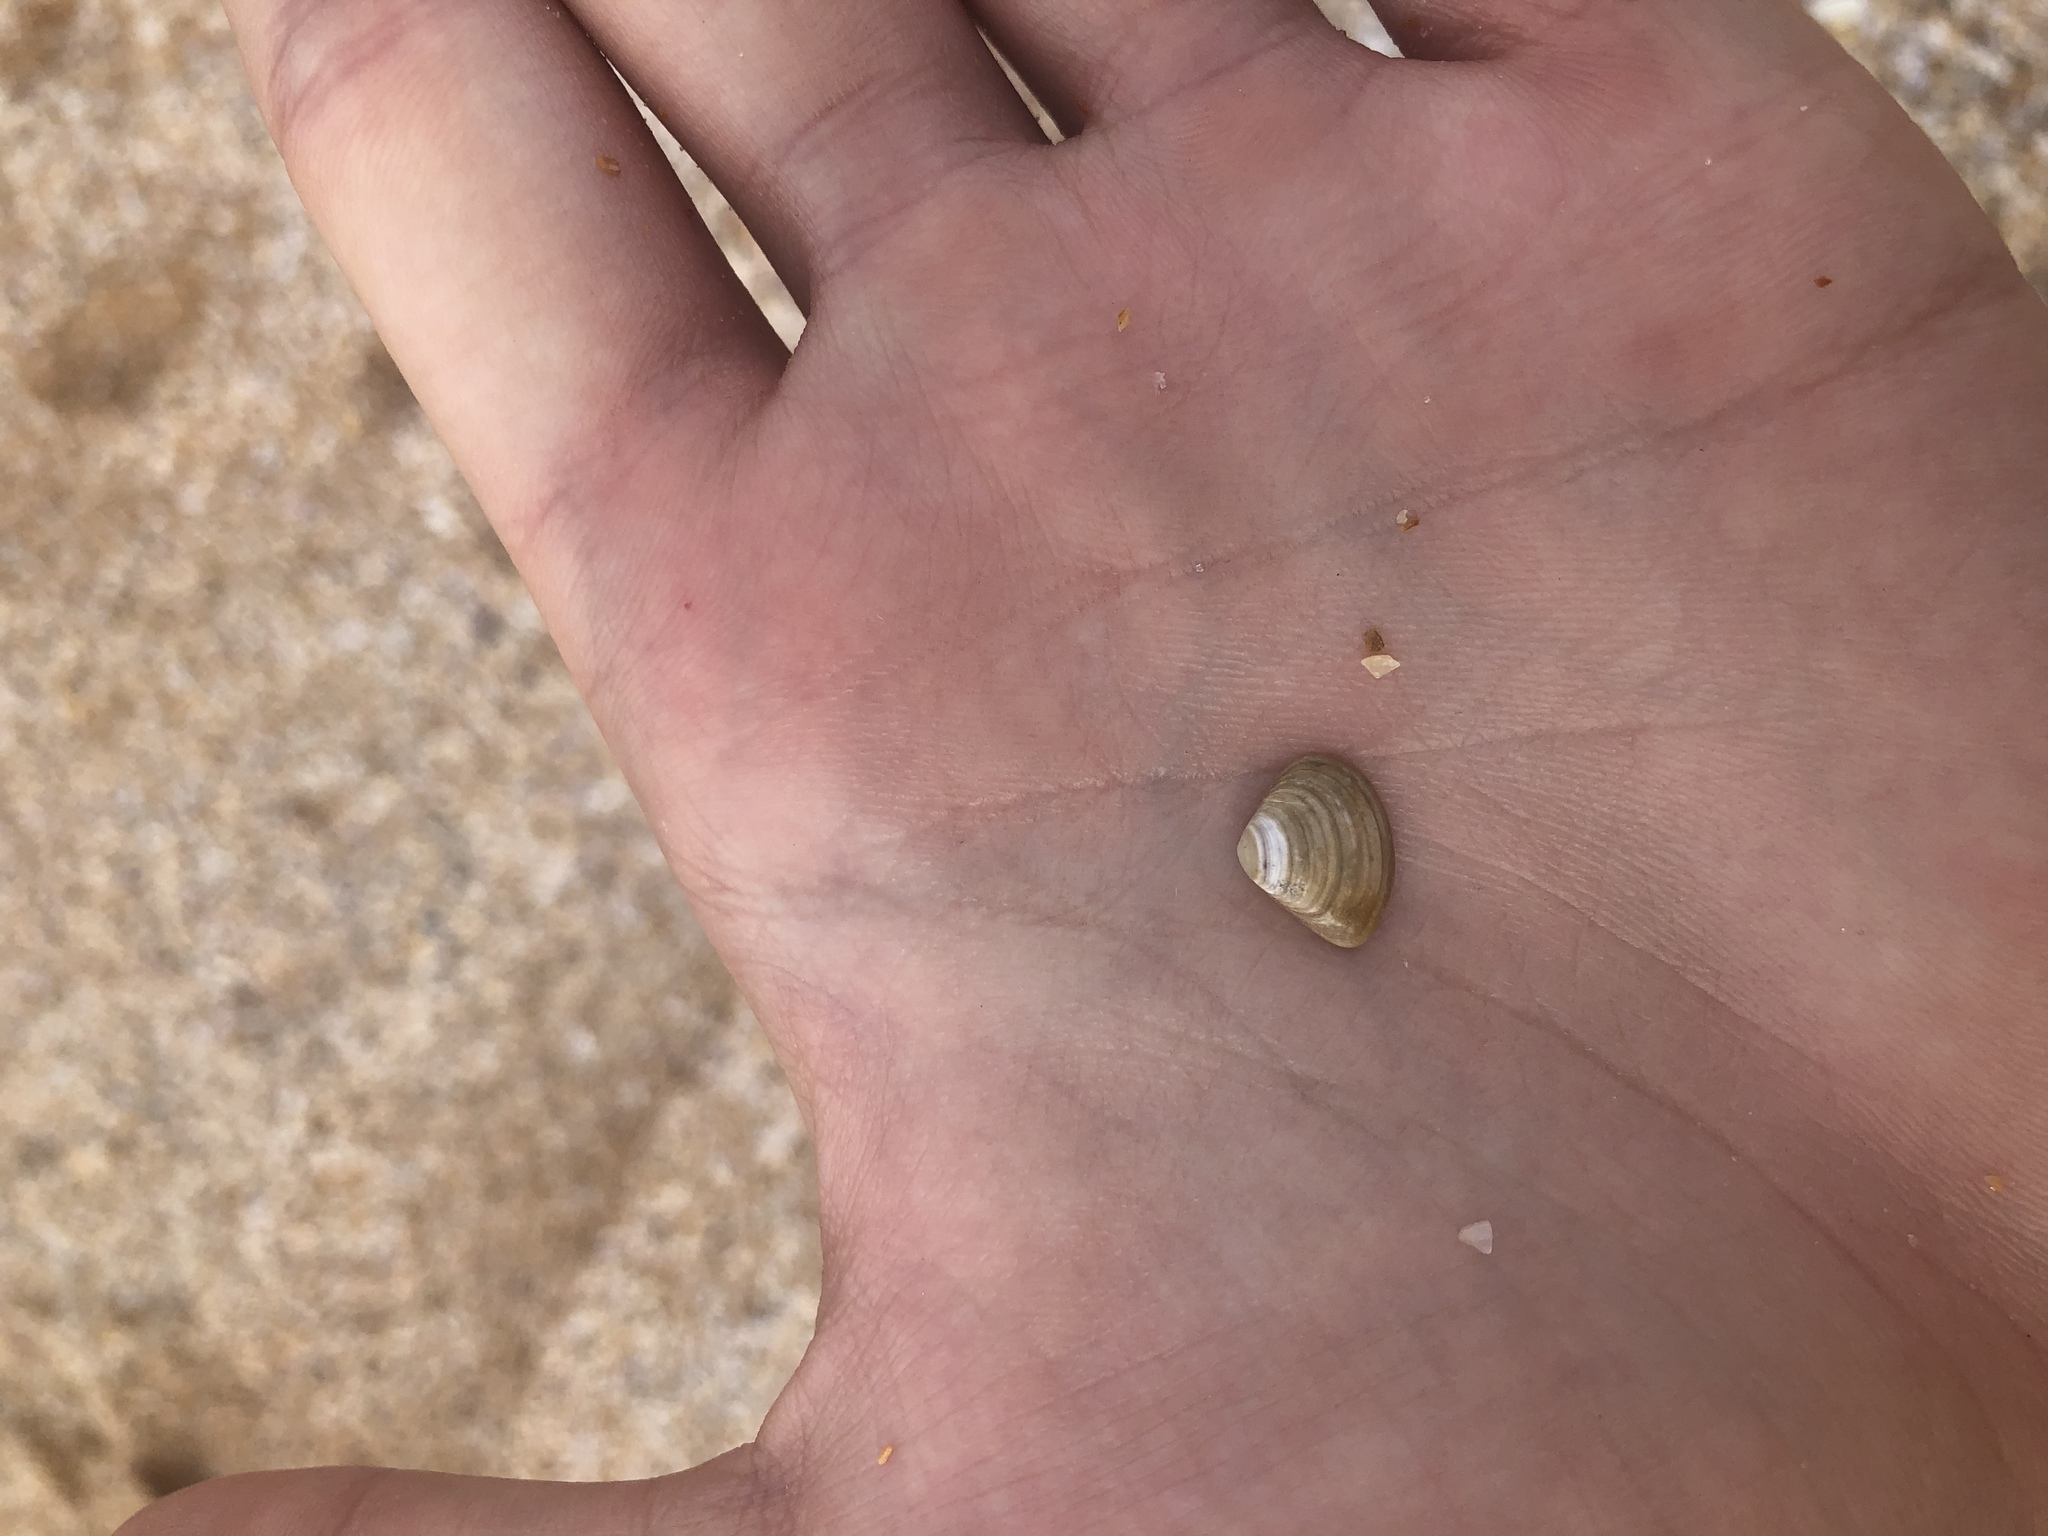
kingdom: Animalia
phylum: Mollusca
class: Bivalvia
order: Venerida
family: Mactridae
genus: Mulinia
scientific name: Mulinia lateralis
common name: Dwarf surfclam
